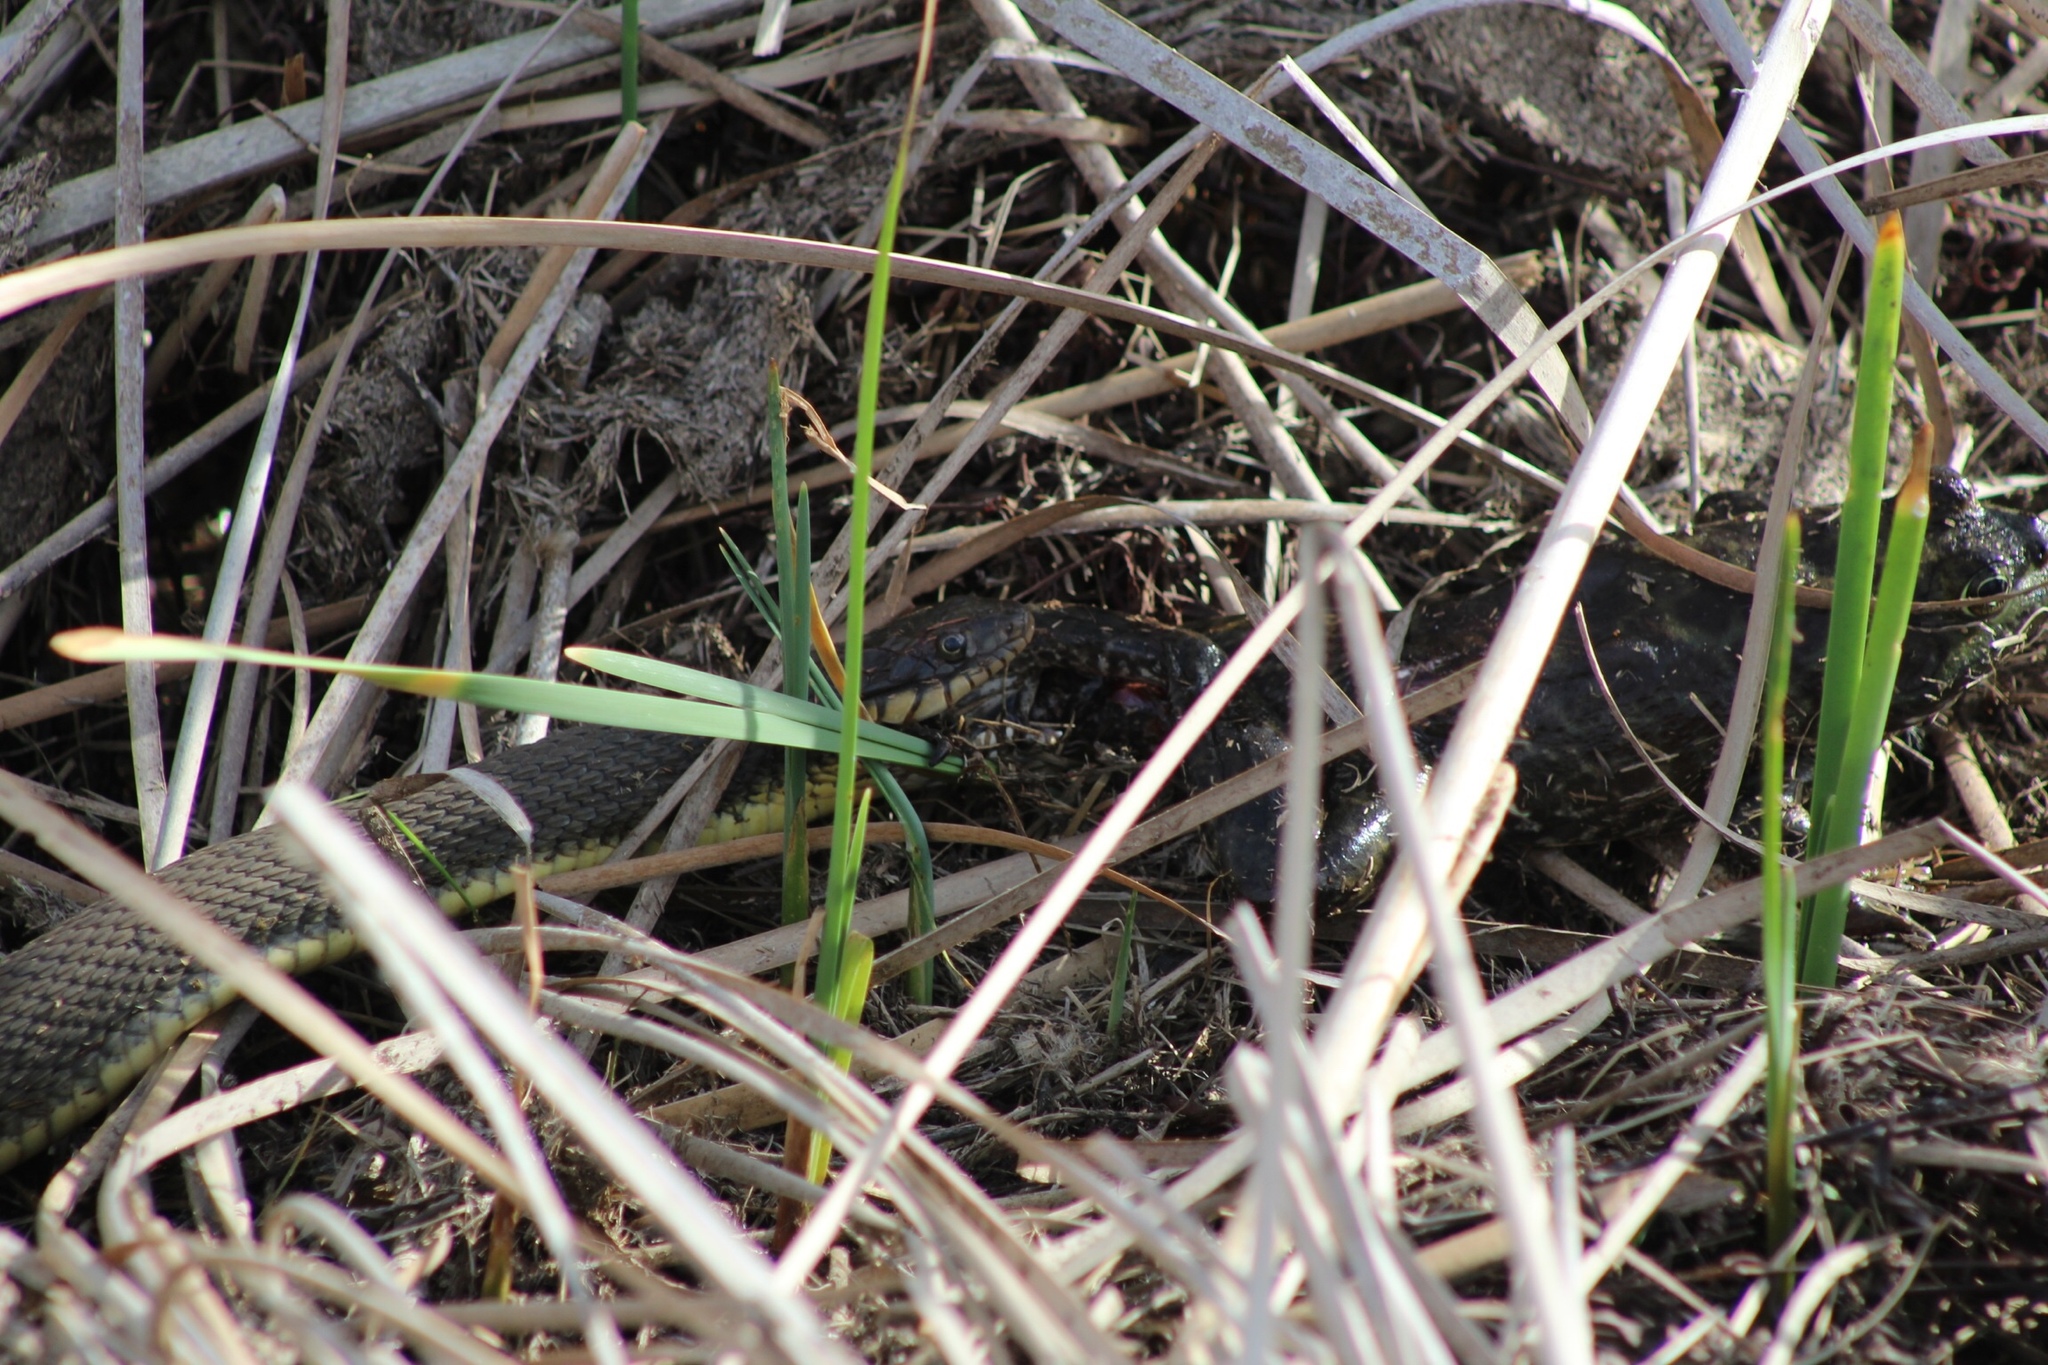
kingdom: Animalia
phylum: Chordata
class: Squamata
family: Colubridae
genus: Nerodia
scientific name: Nerodia erythrogaster
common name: Plainbelly water snake
